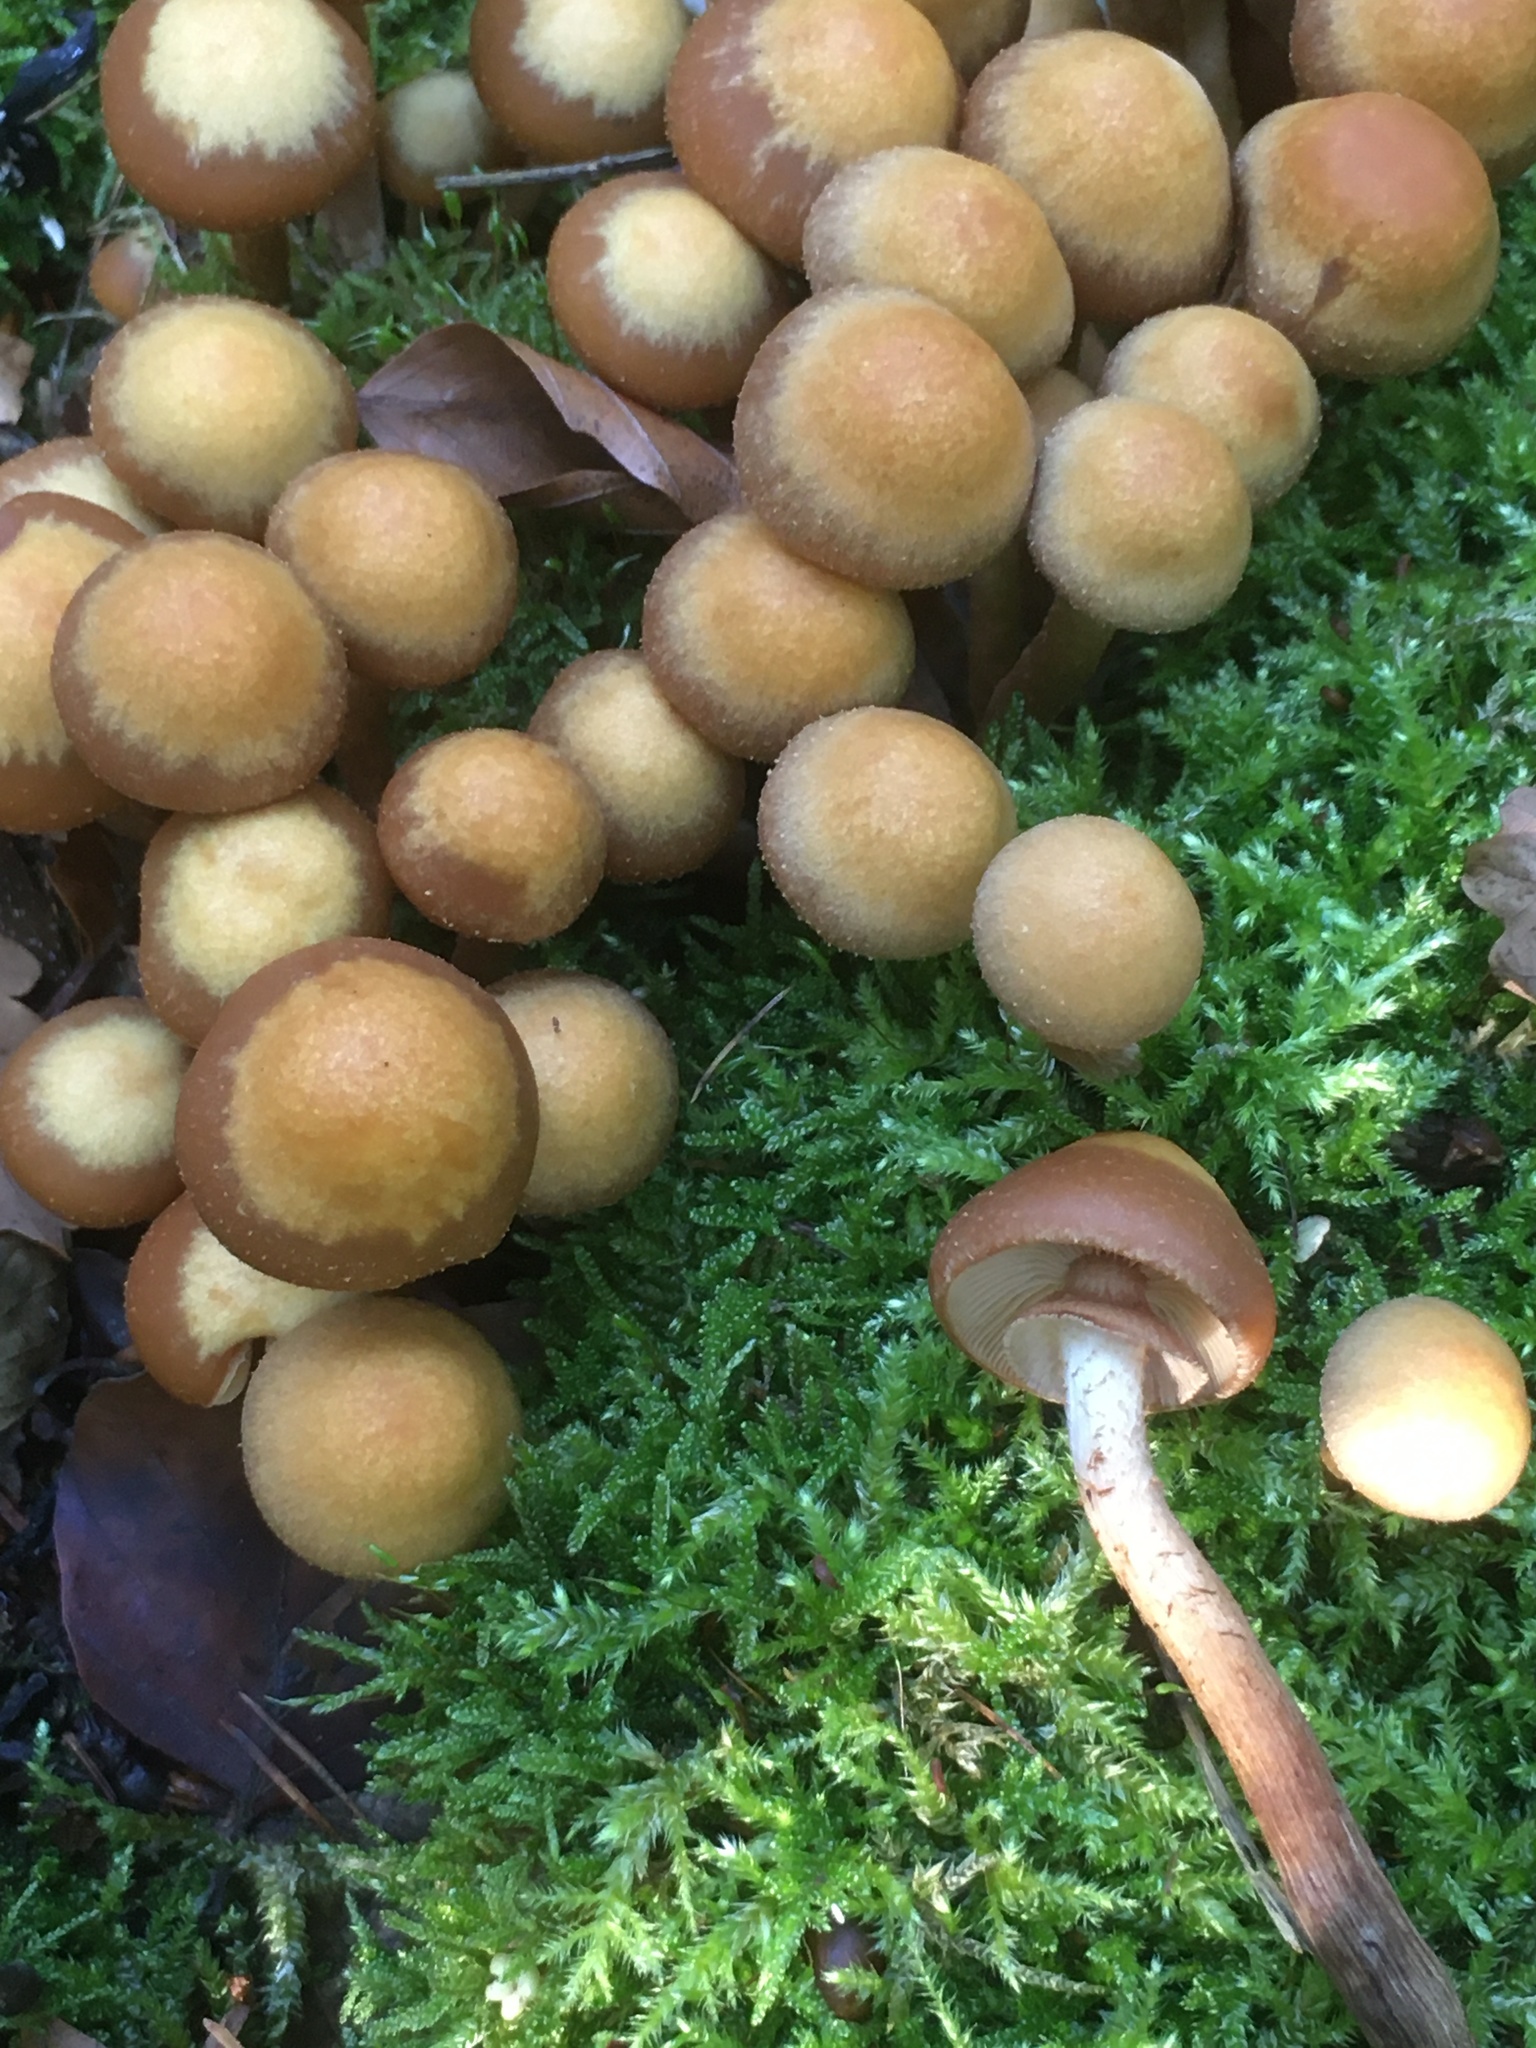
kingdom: Fungi
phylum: Basidiomycota
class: Agaricomycetes
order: Agaricales
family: Strophariaceae
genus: Kuehneromyces
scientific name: Kuehneromyces mutabilis
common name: Sheathed woodtuft
